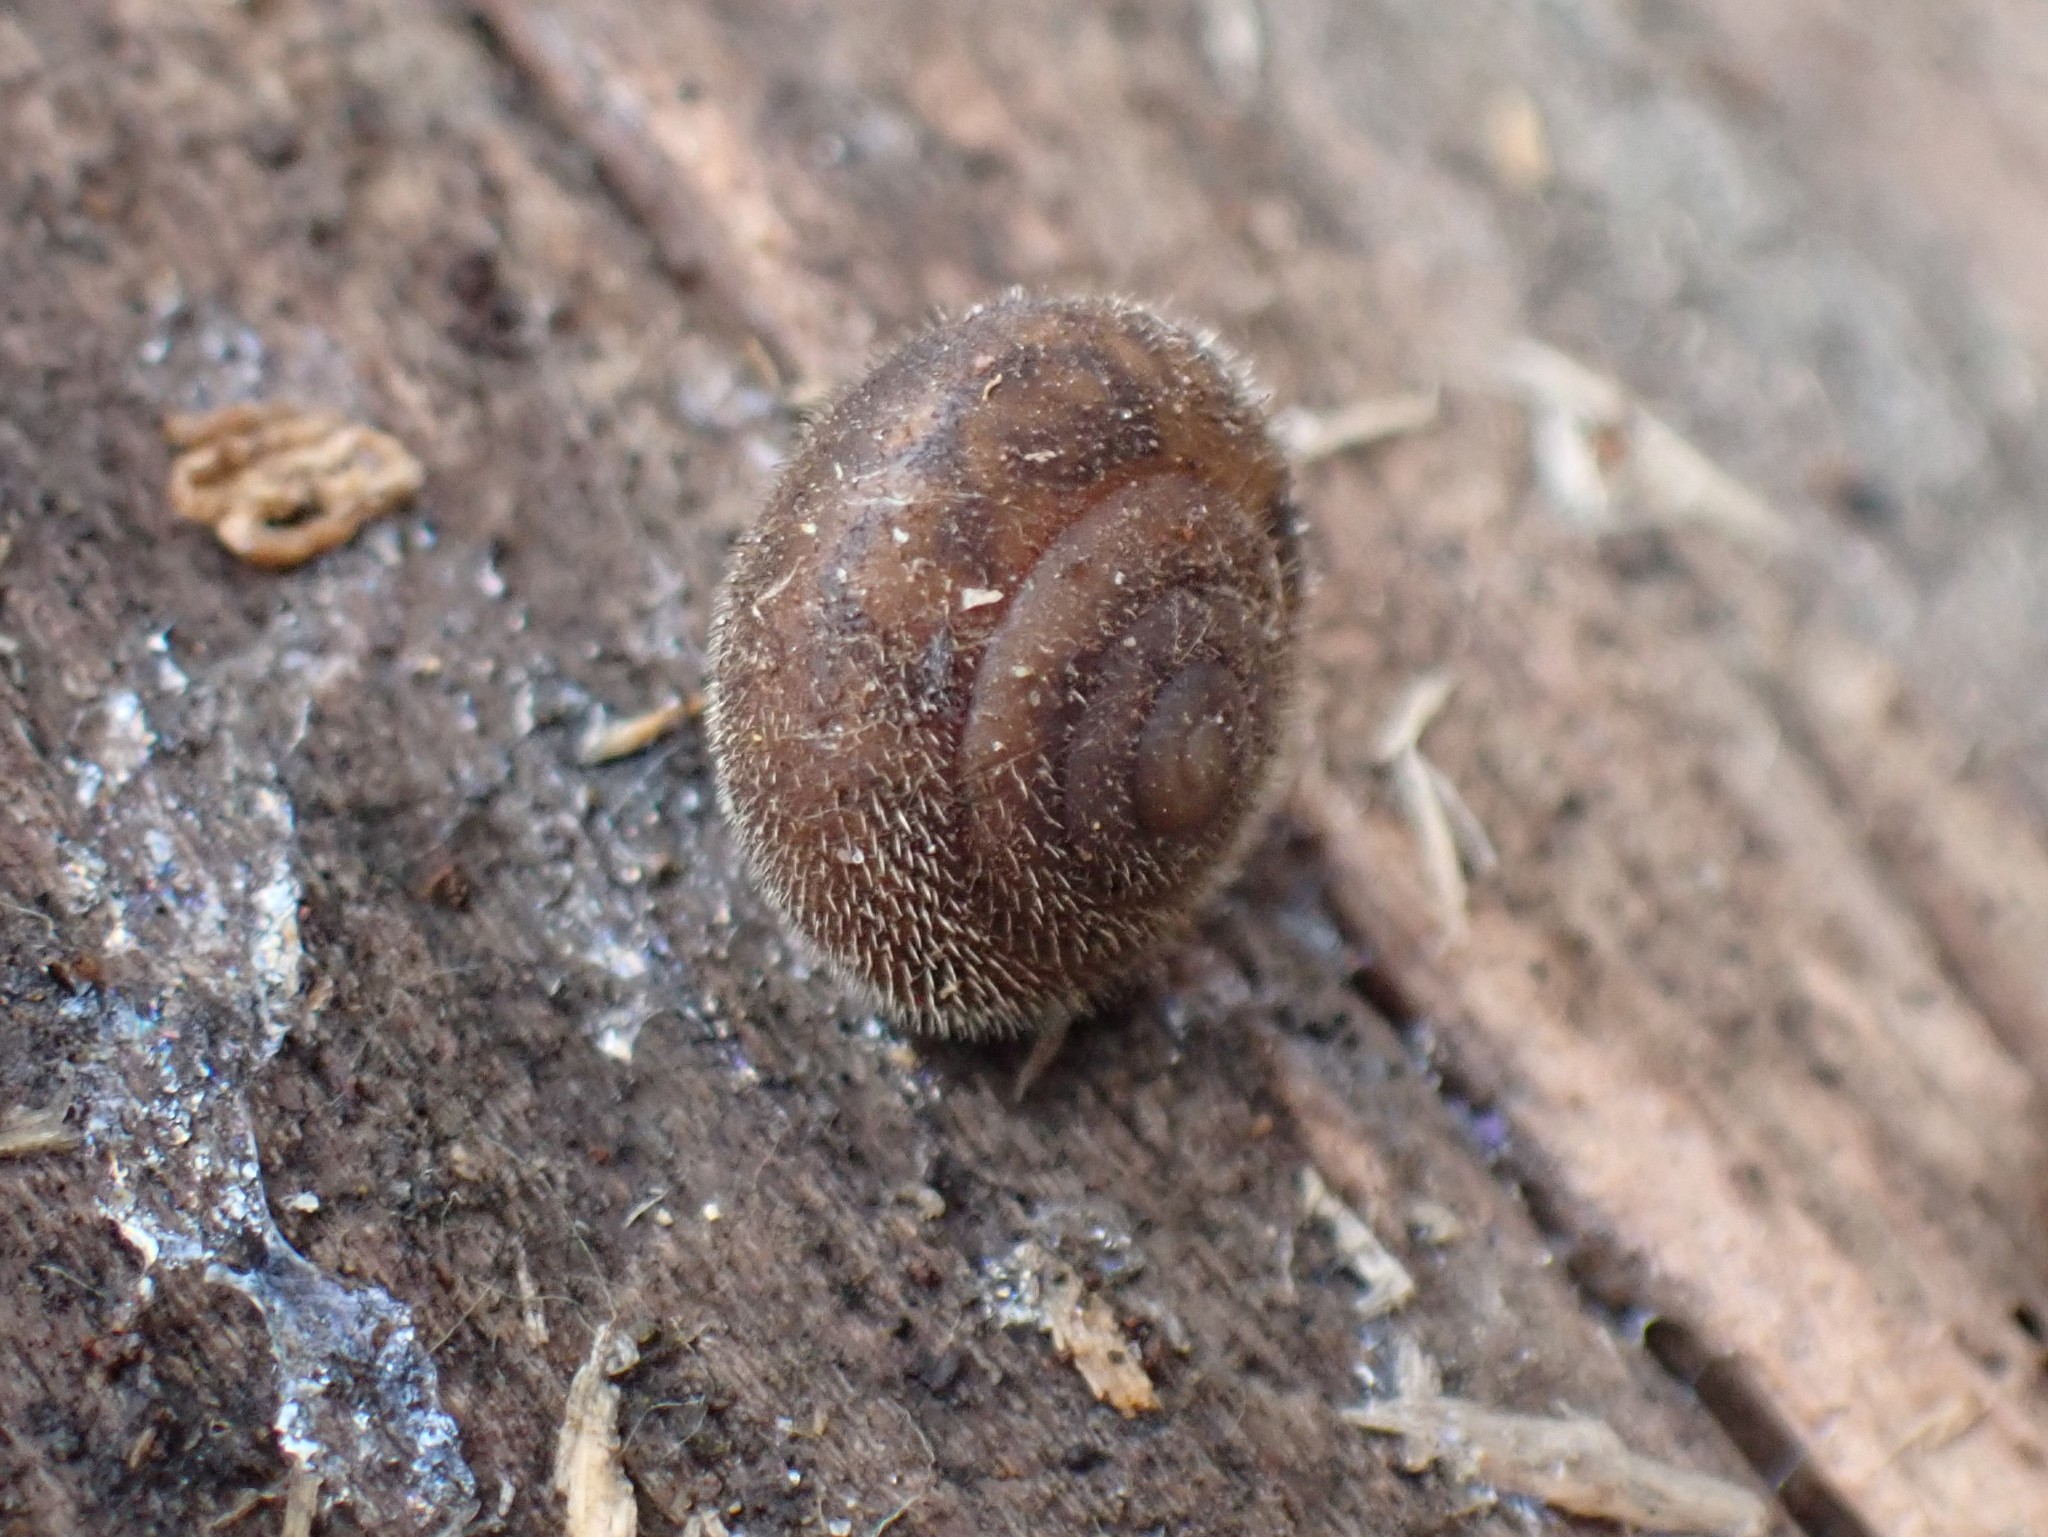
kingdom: Animalia
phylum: Mollusca
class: Gastropoda
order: Stylommatophora
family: Polygyridae
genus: Vespericola
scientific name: Vespericola columbianus
